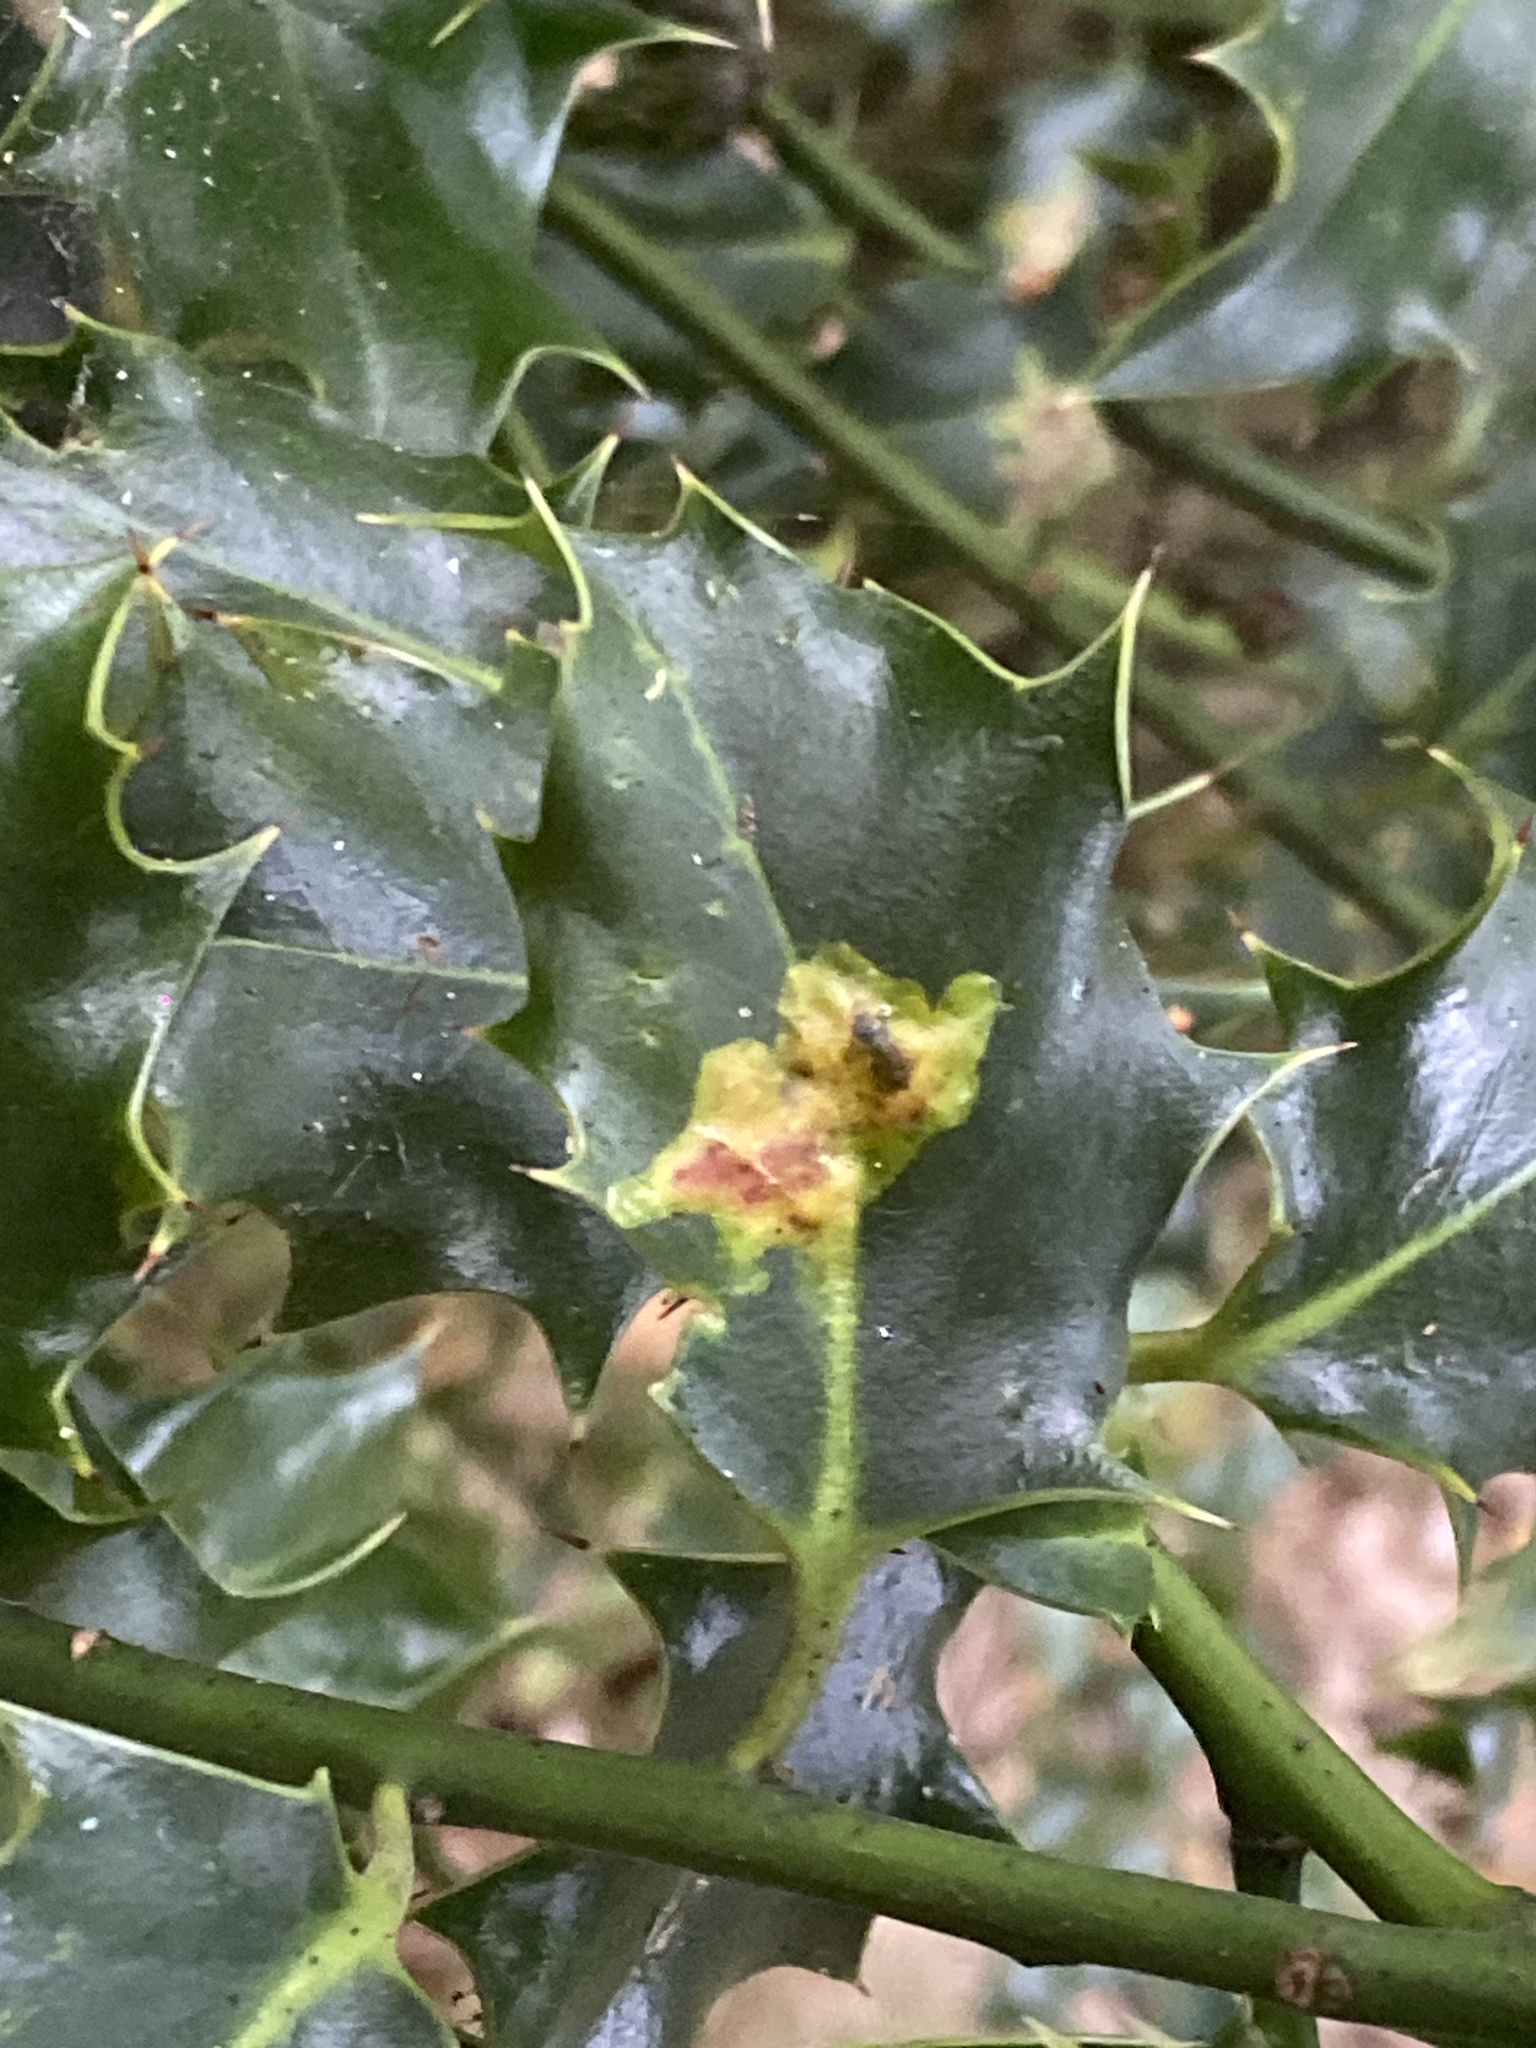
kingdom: Animalia
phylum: Arthropoda
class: Insecta
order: Diptera
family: Agromyzidae
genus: Phytomyza
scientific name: Phytomyza ilicis
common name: Holly leafminer
